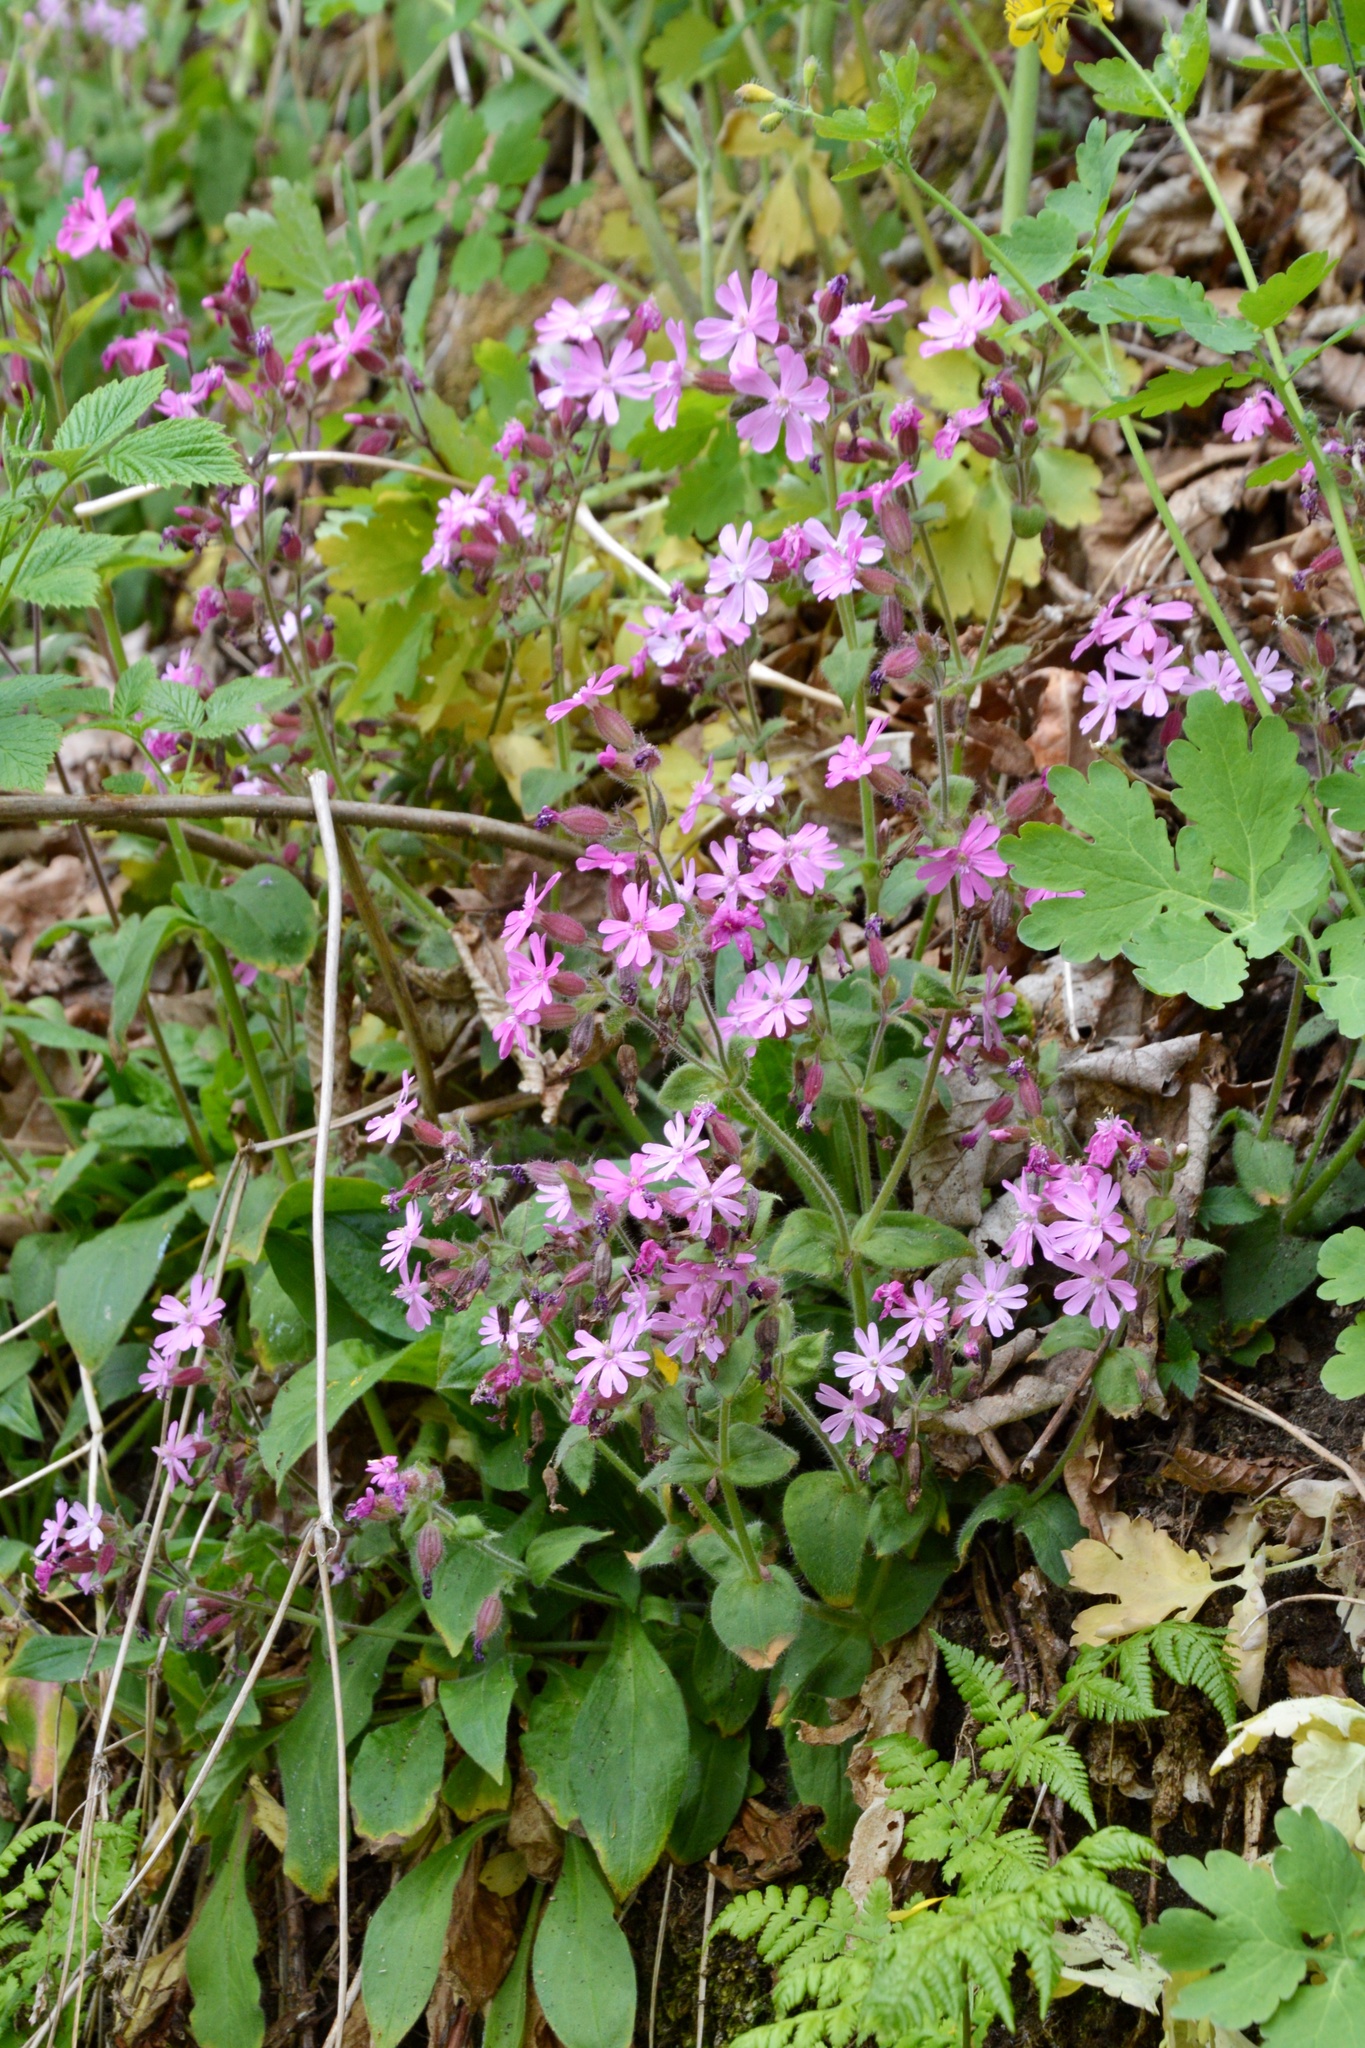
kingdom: Plantae
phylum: Tracheophyta
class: Magnoliopsida
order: Caryophyllales
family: Caryophyllaceae
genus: Silene
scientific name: Silene dioica
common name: Red campion
